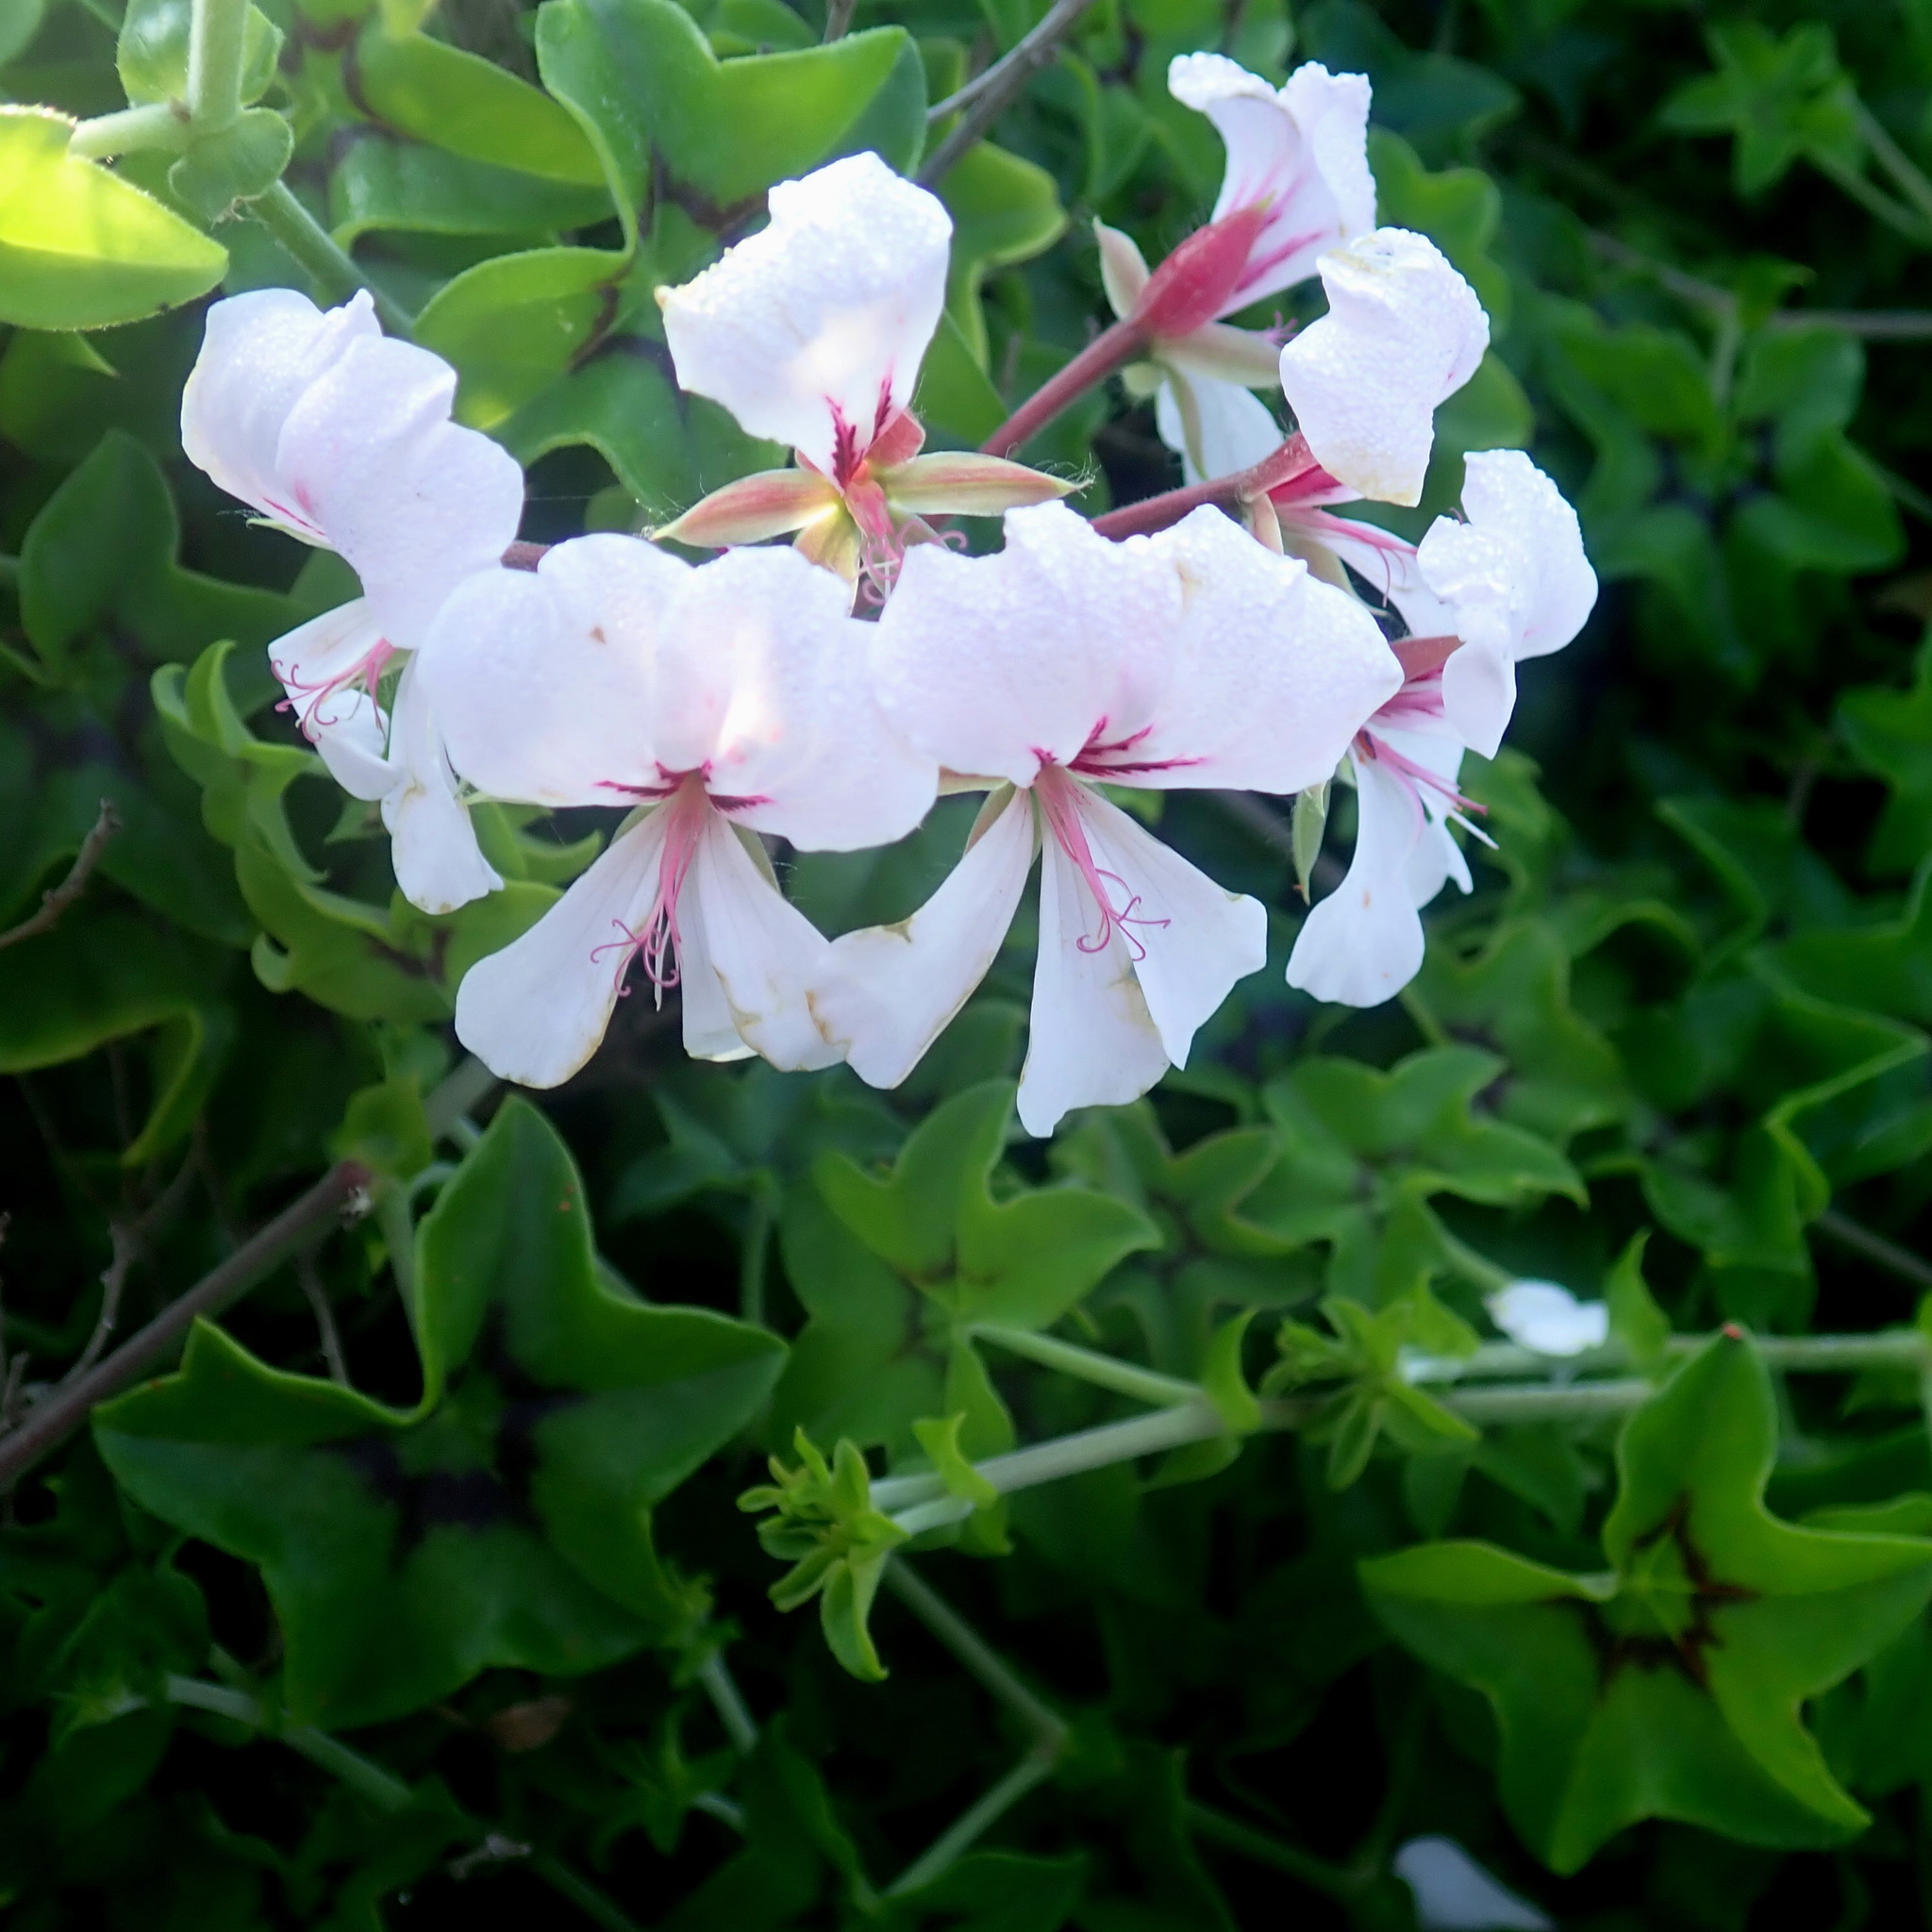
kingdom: Plantae
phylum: Tracheophyta
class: Magnoliopsida
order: Geraniales
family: Geraniaceae
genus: Pelargonium
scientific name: Pelargonium peltatum
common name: Ivyleaf geranium
